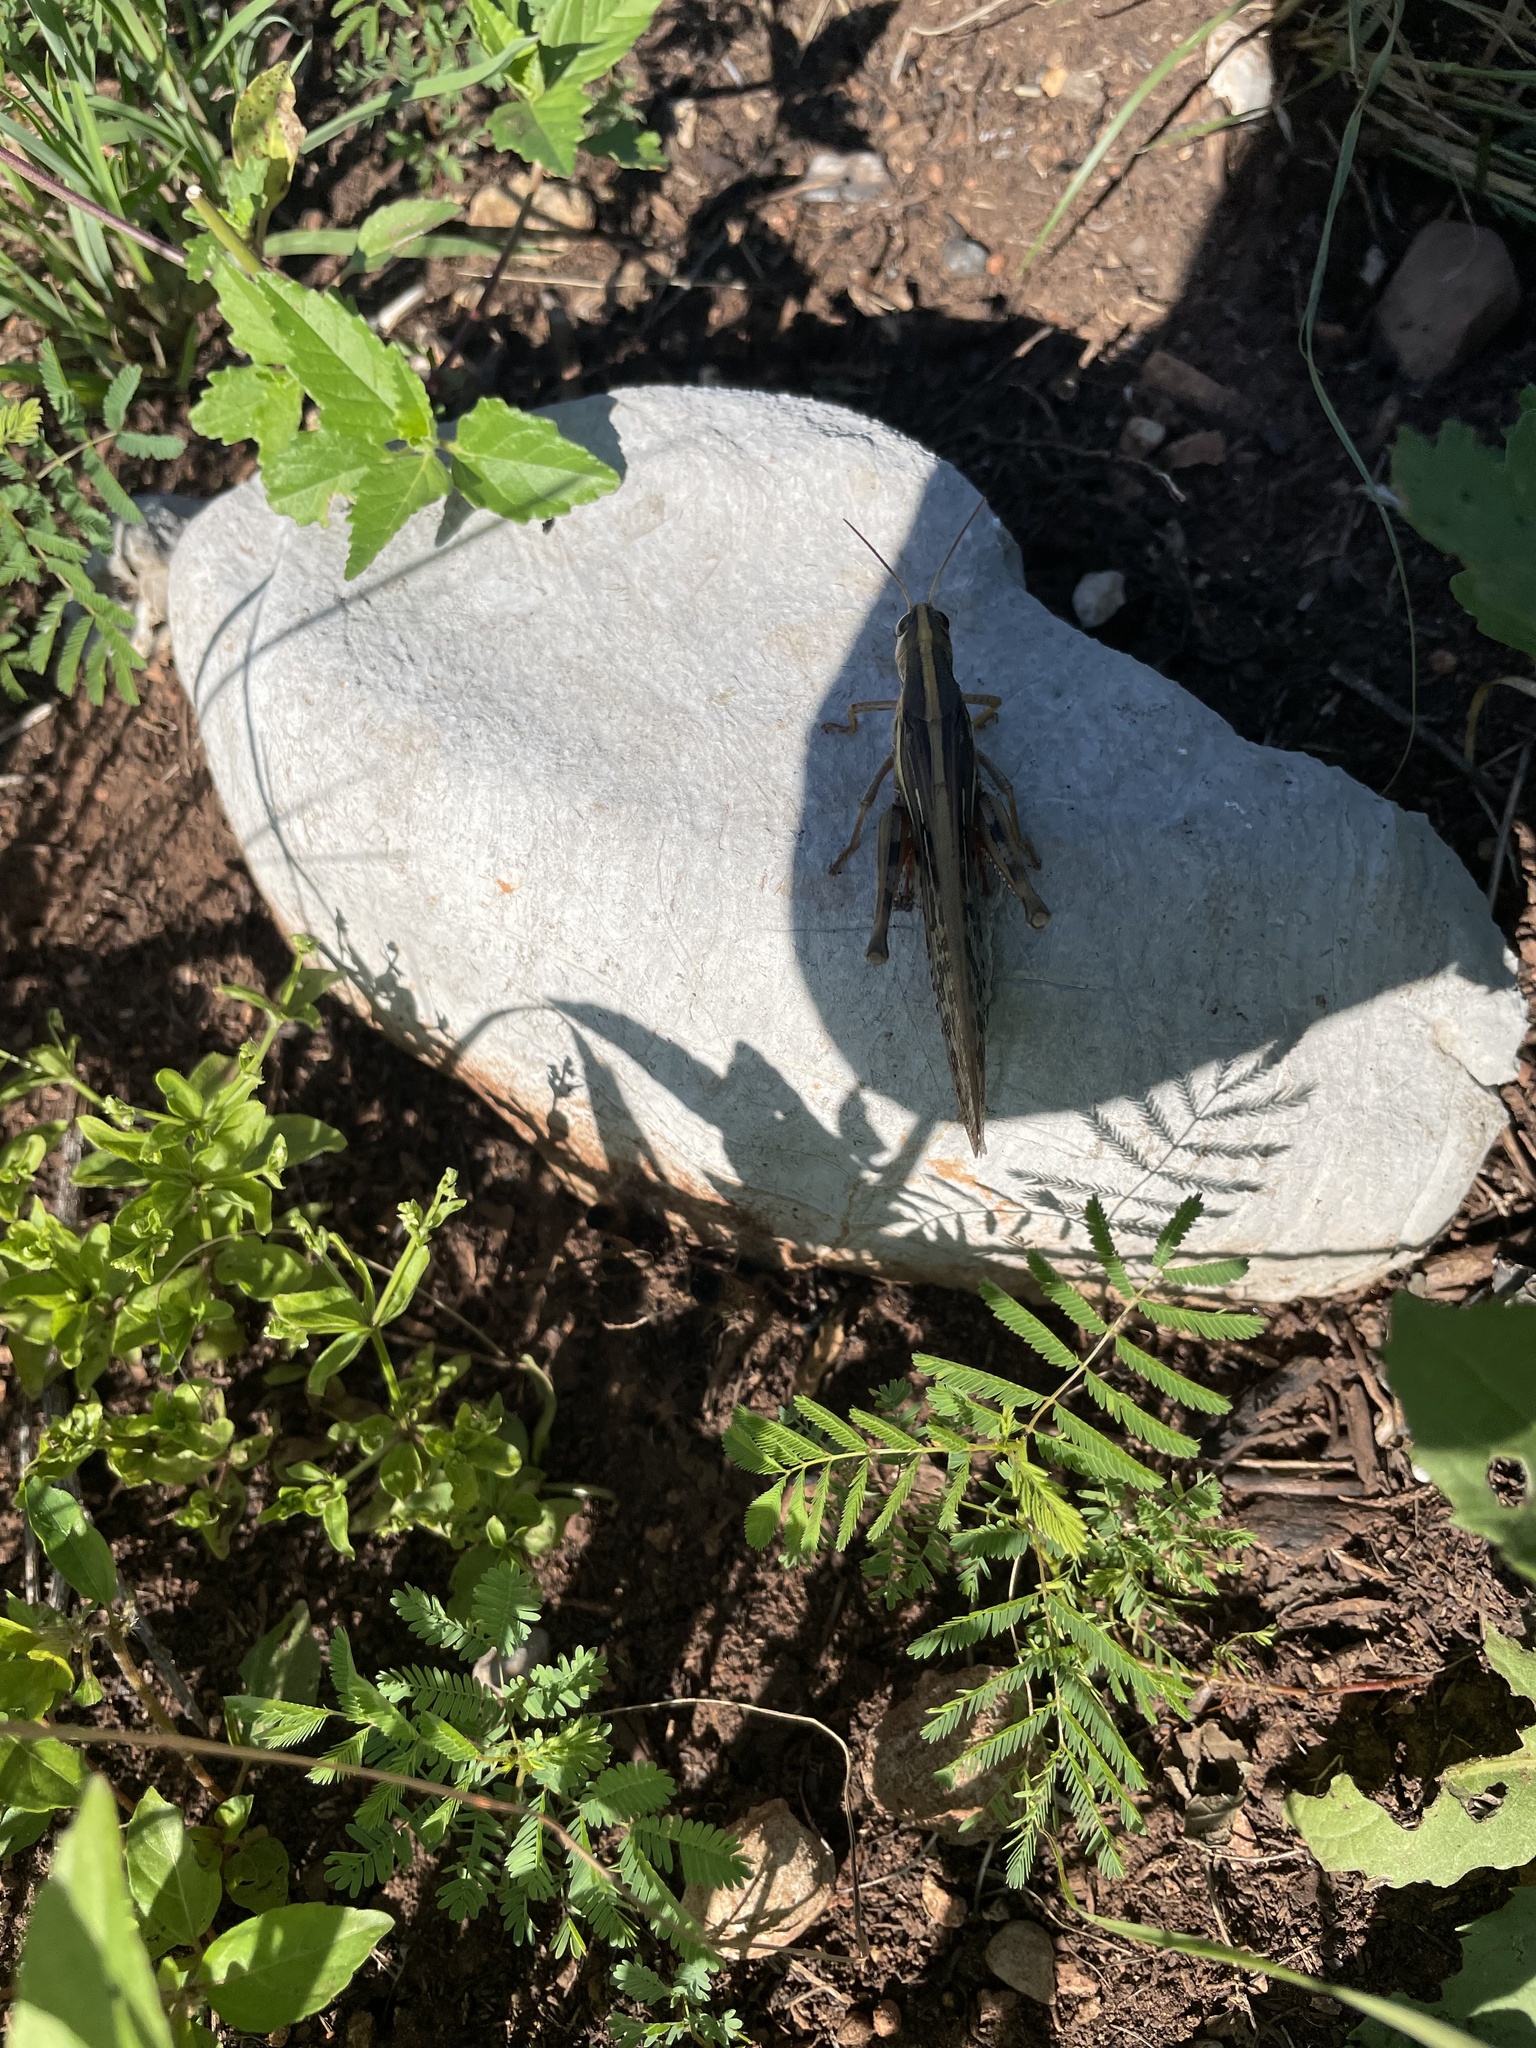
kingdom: Animalia
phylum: Arthropoda
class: Insecta
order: Orthoptera
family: Acrididae
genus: Schistocerca
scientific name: Schistocerca americana
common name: American bird locust
